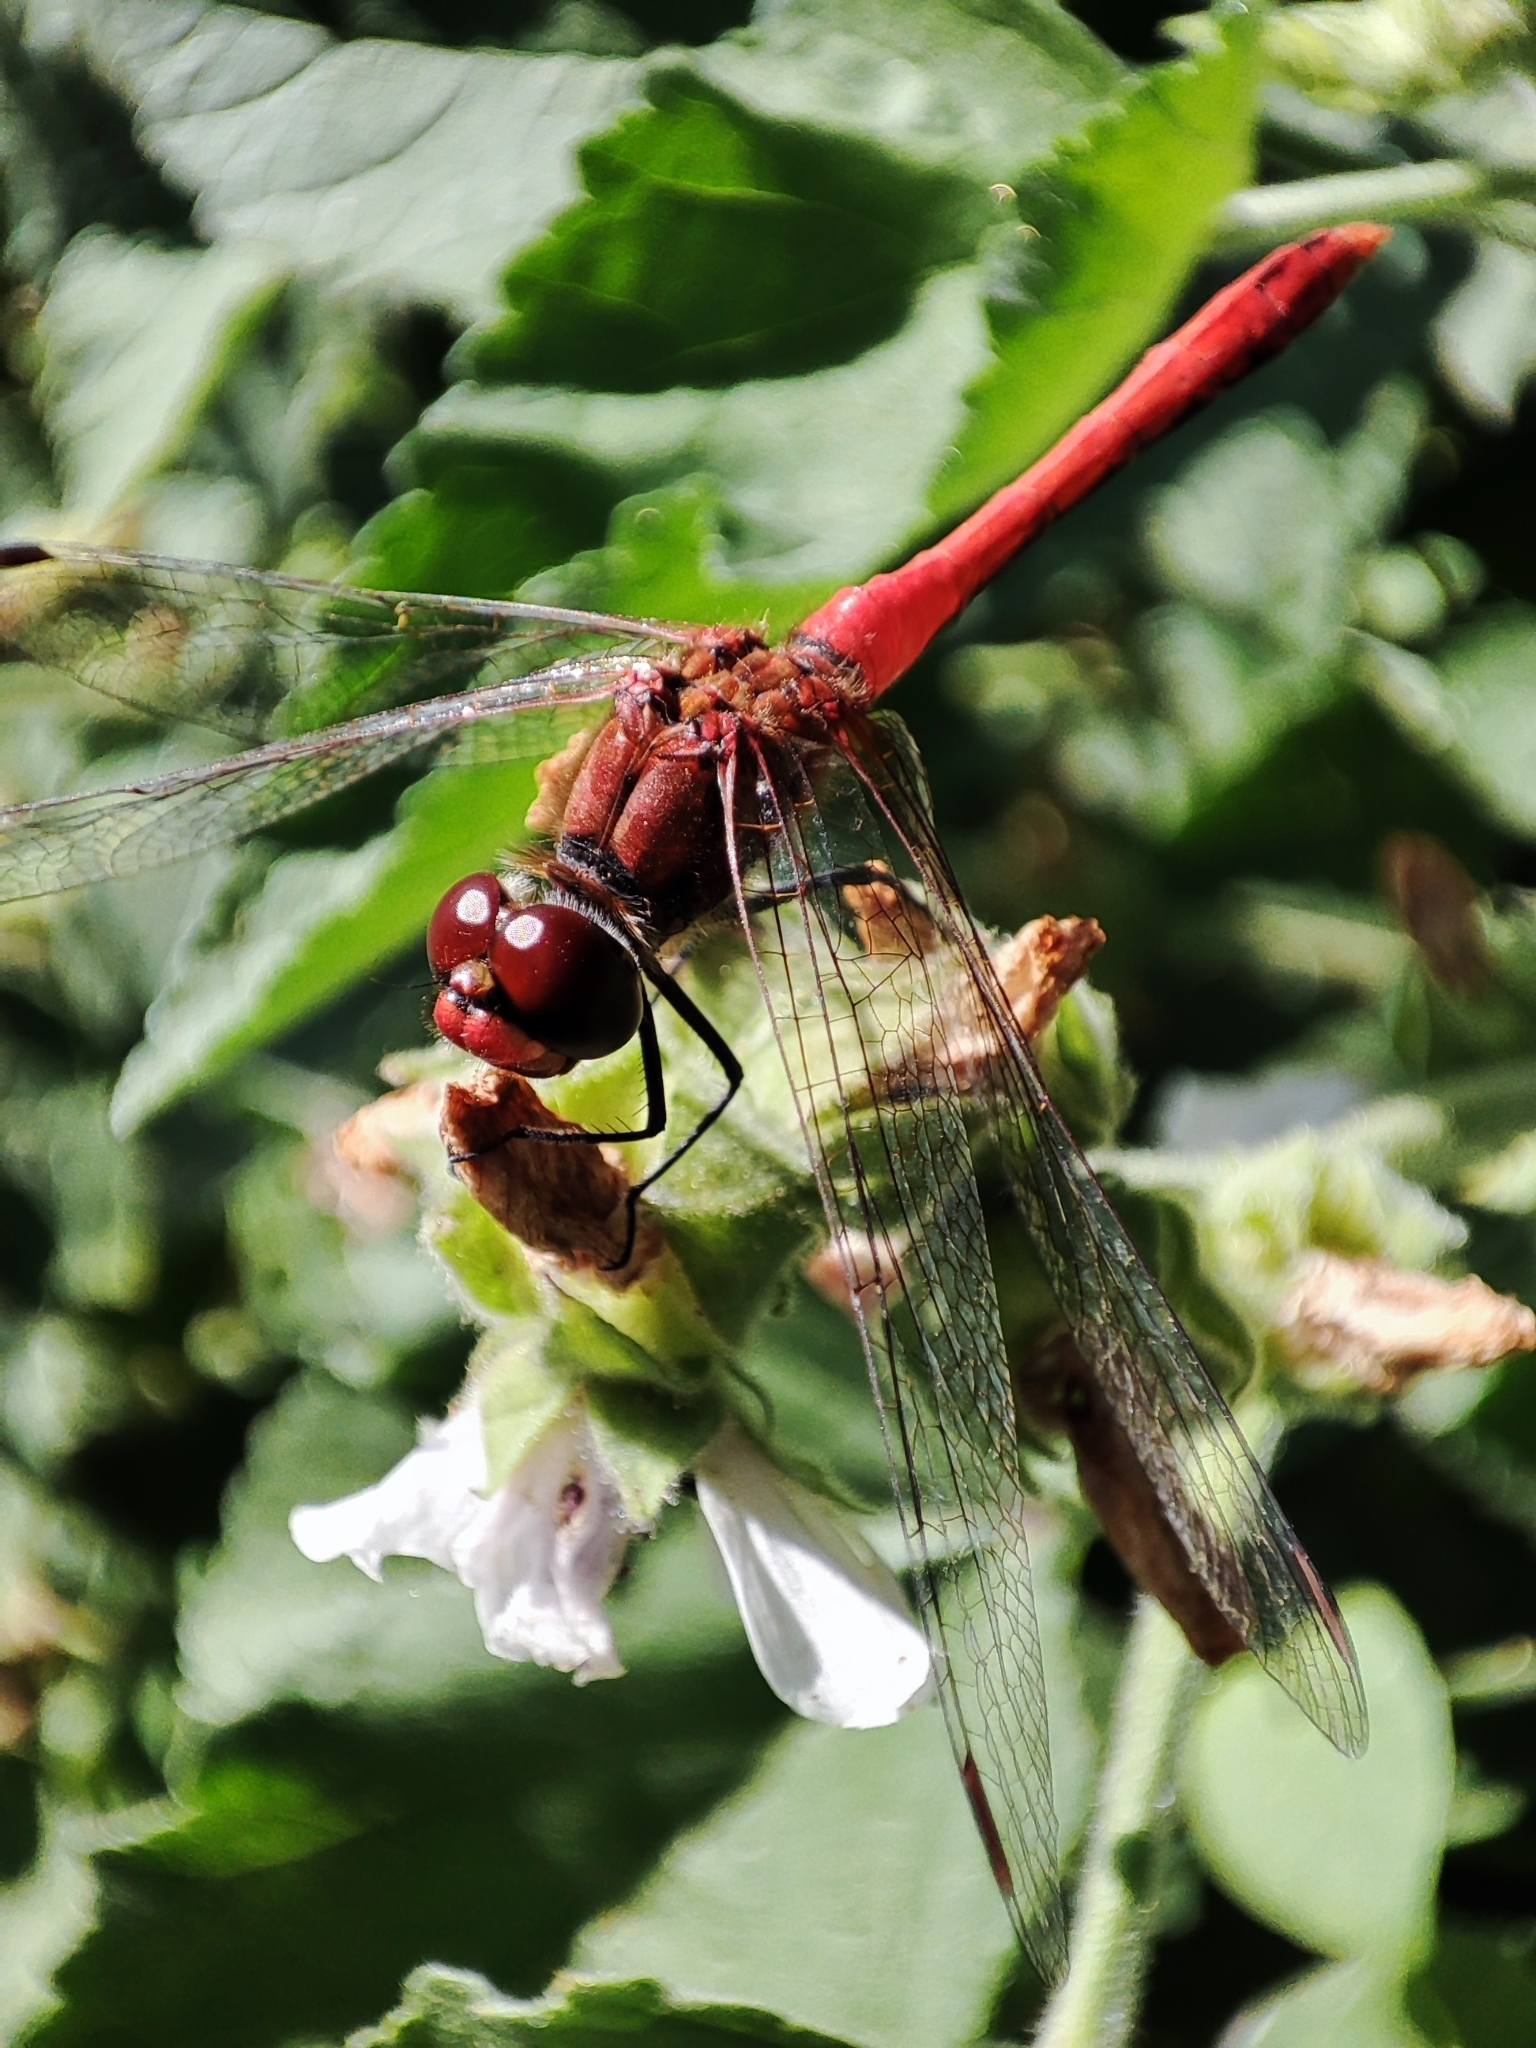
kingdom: Animalia
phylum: Arthropoda
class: Insecta
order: Odonata
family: Libellulidae
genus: Sympetrum
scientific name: Sympetrum sanguineum
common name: Ruddy darter
